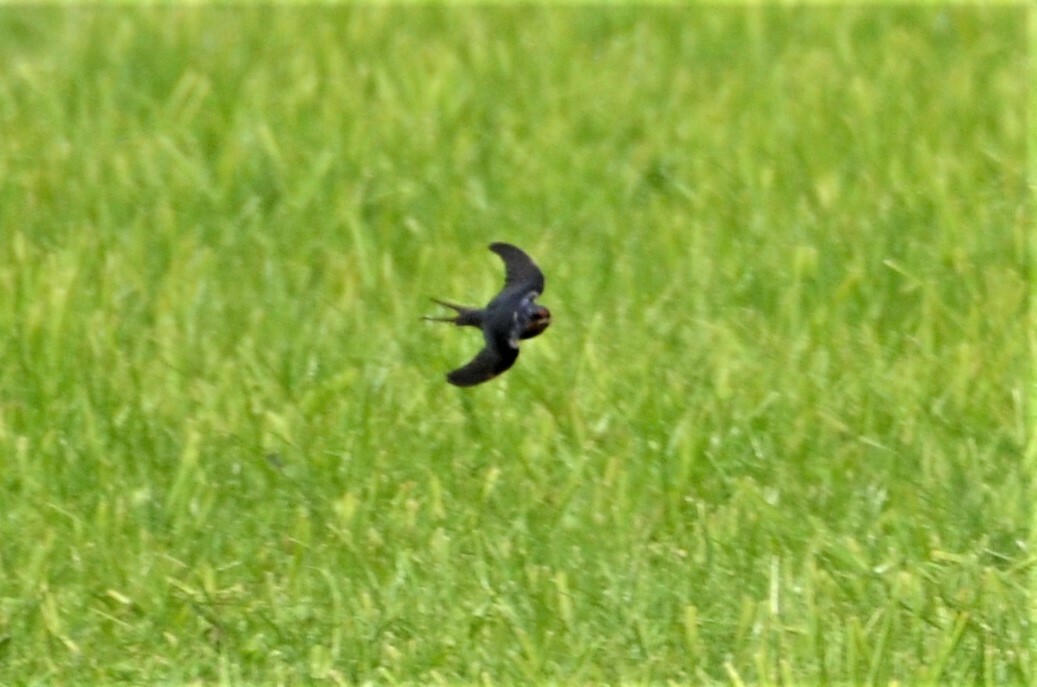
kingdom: Animalia
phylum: Chordata
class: Aves
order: Passeriformes
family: Hirundinidae
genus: Hirundo
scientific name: Hirundo rustica
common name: Barn swallow
